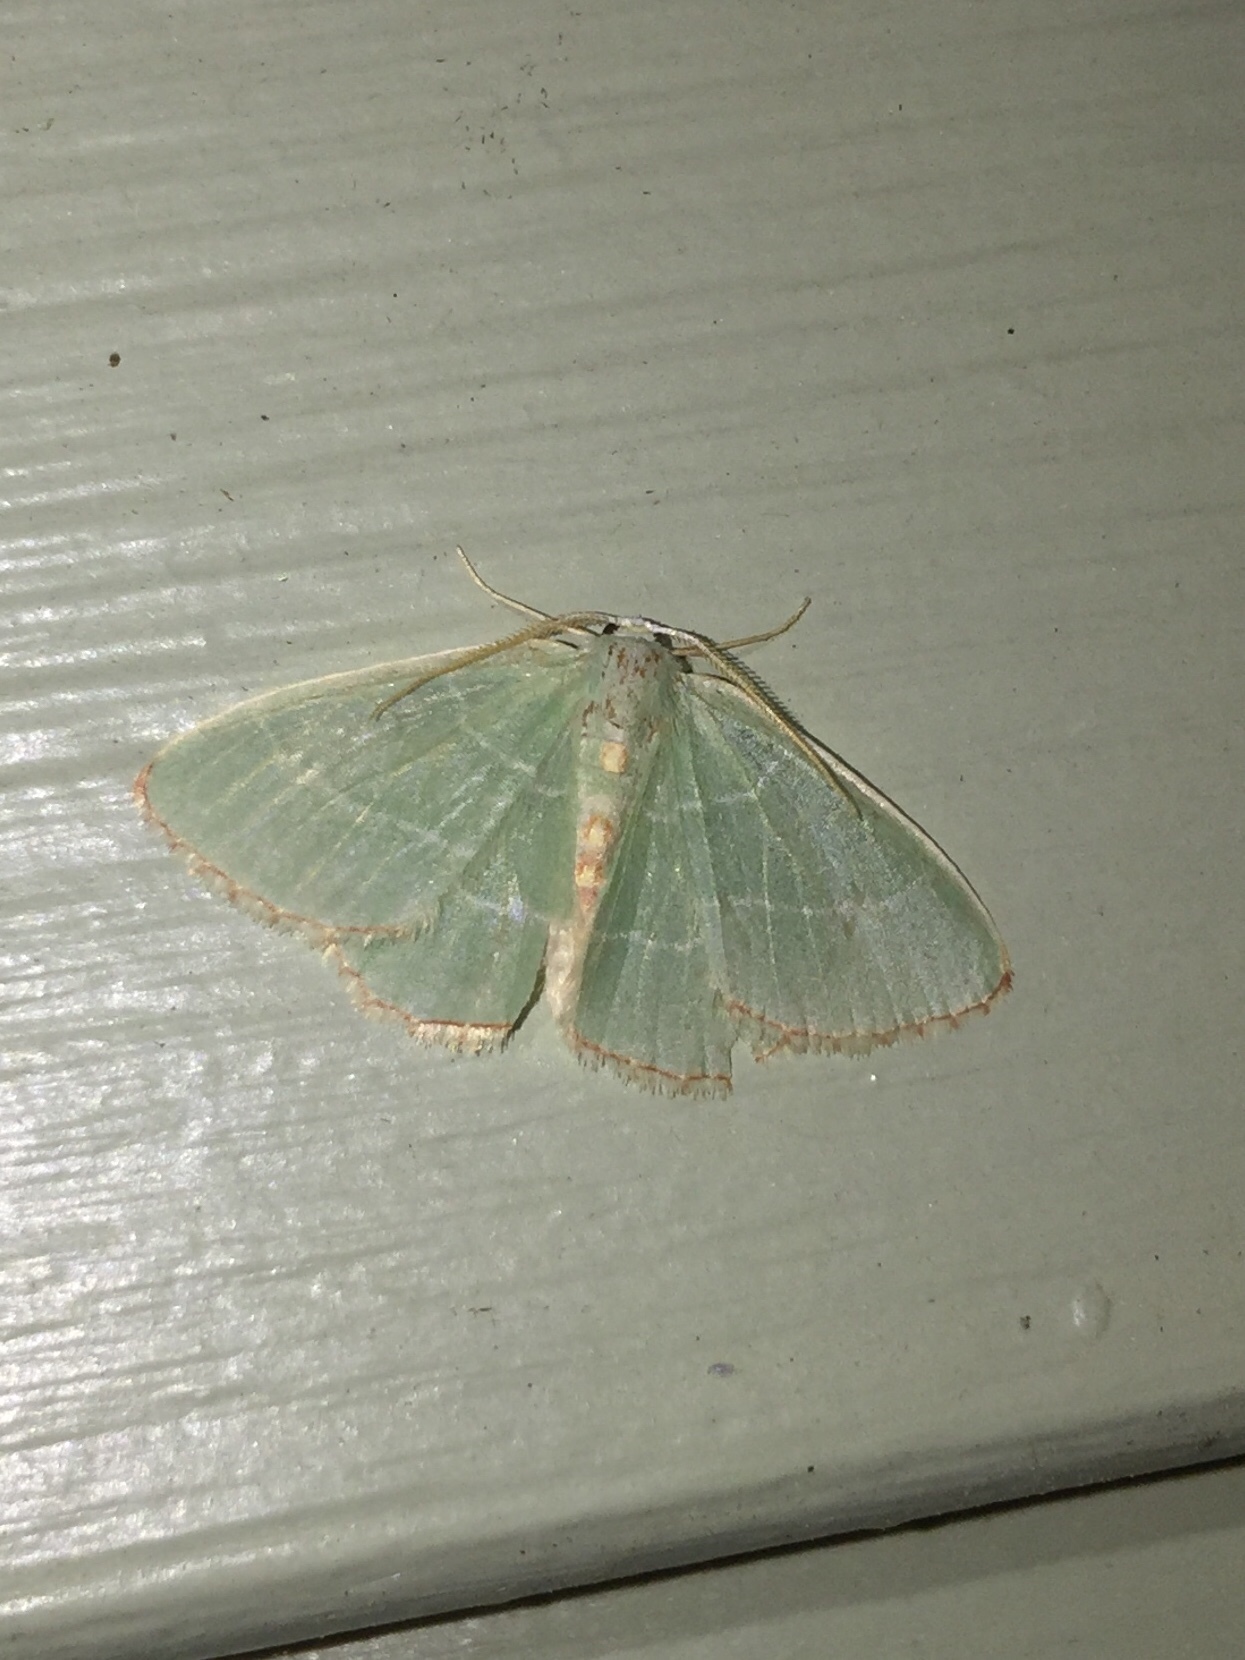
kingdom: Animalia
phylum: Arthropoda
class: Insecta
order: Lepidoptera
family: Geometridae
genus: Nemoria
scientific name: Nemoria bistriaria
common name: Red-fringed emerald
